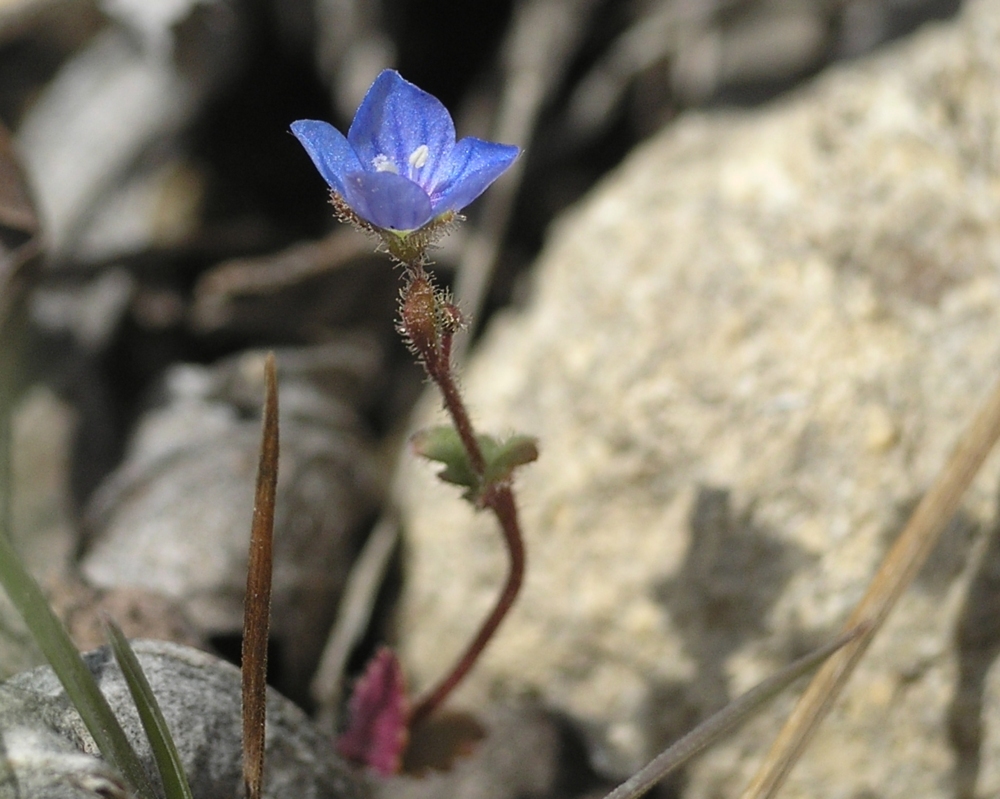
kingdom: Plantae
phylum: Tracheophyta
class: Magnoliopsida
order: Lamiales
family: Plantaginaceae
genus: Veronica
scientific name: Veronica praecox
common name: Breckland speedwell
